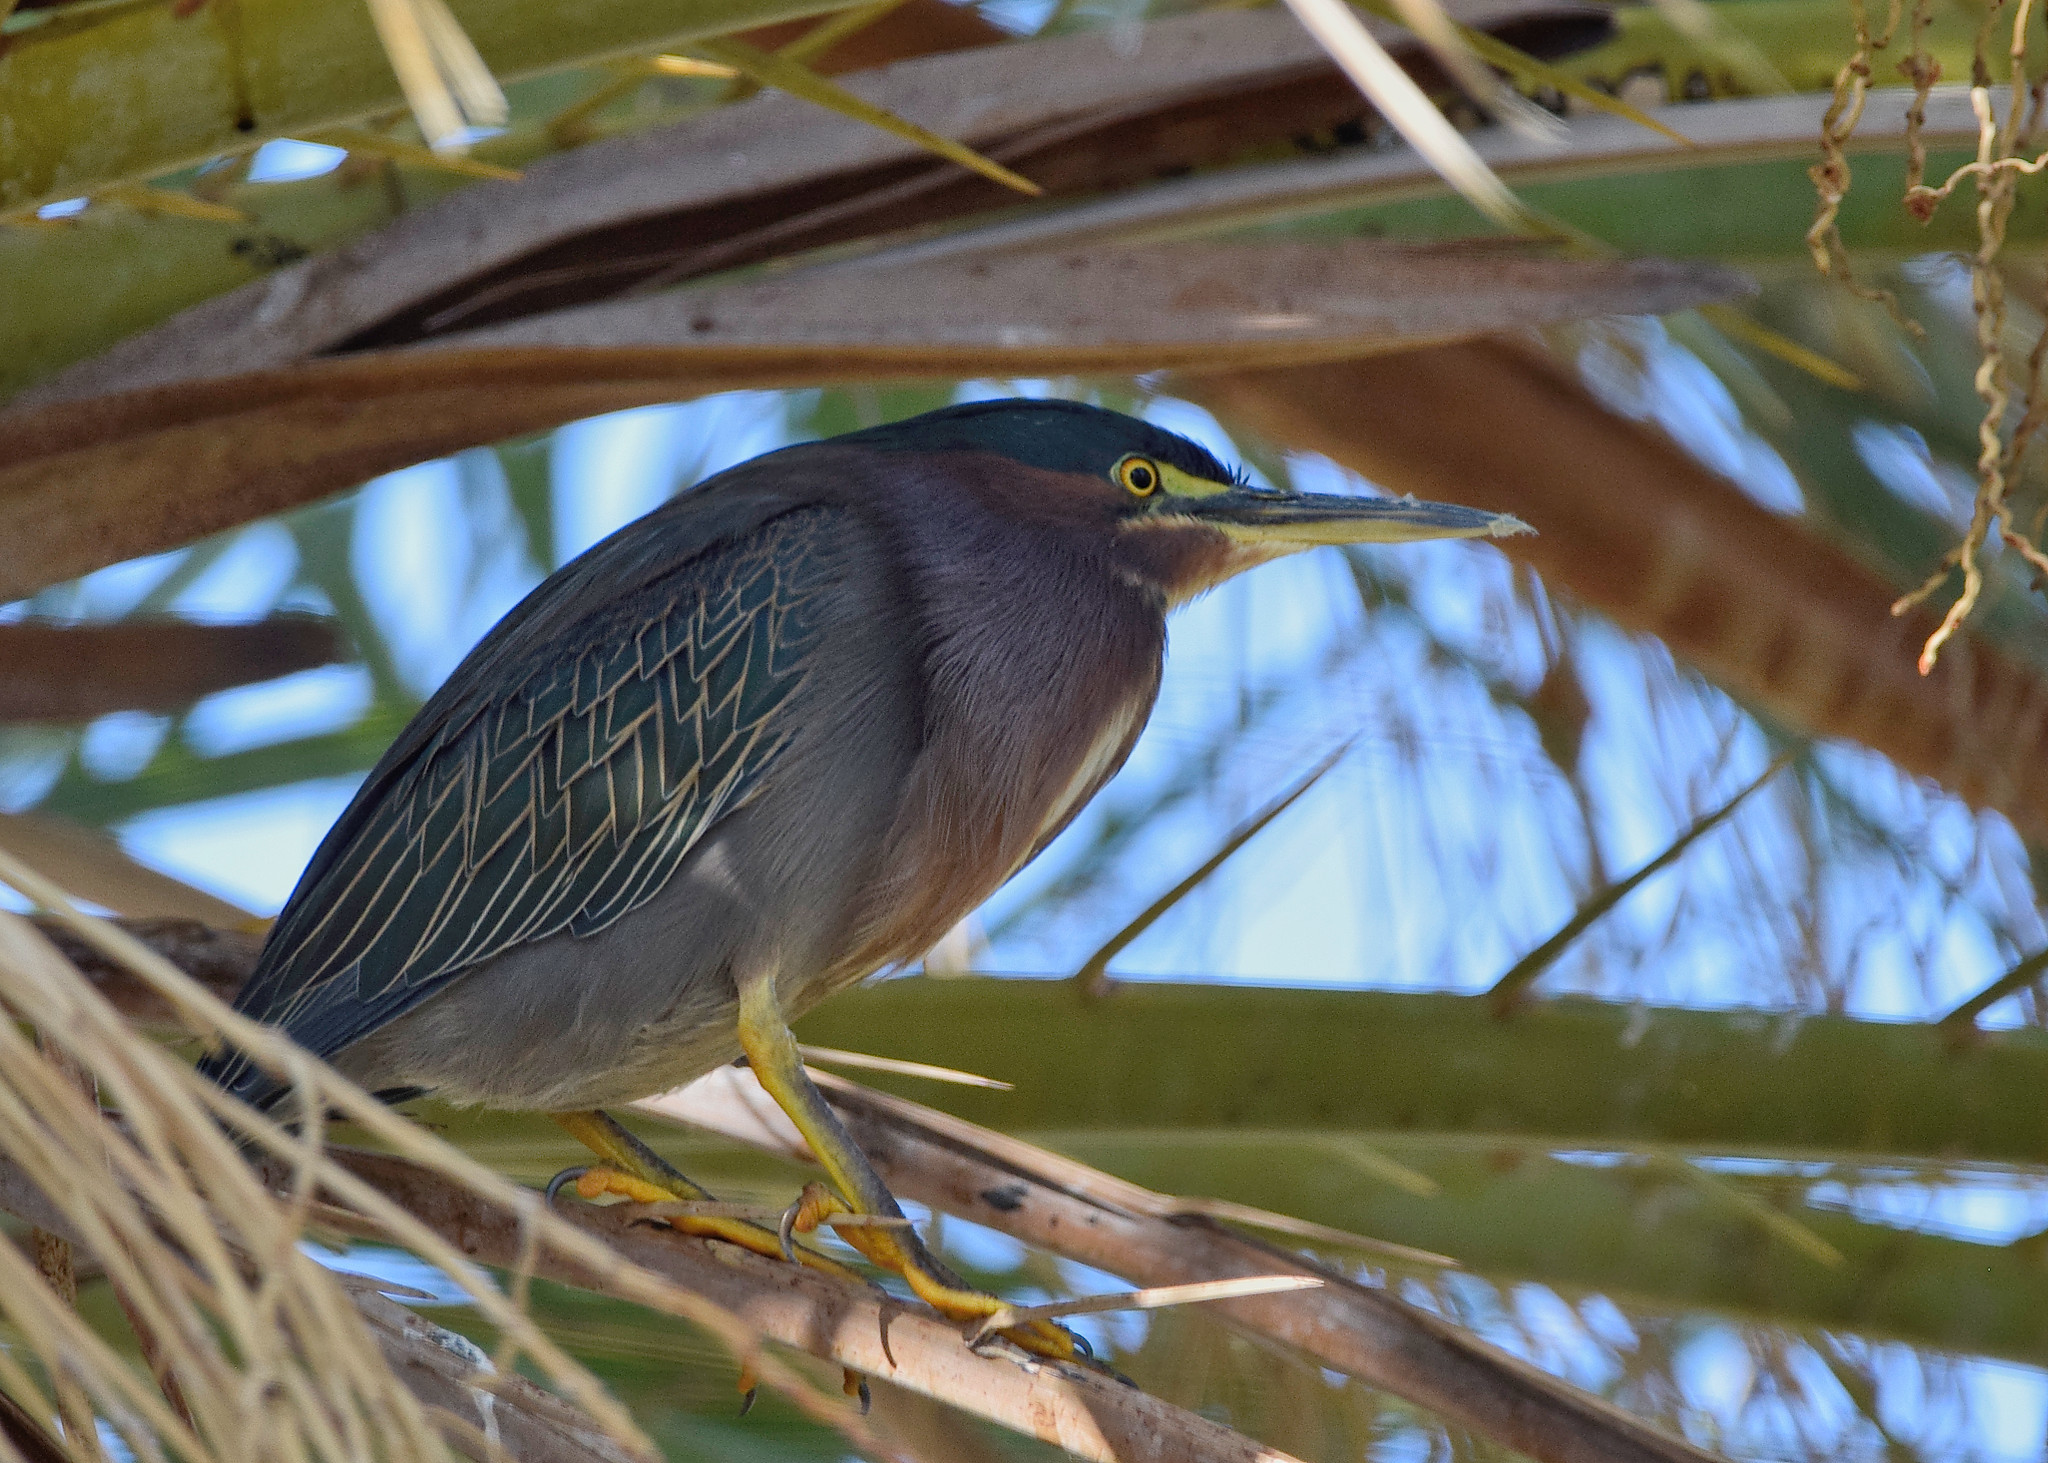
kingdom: Animalia
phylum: Chordata
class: Aves
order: Pelecaniformes
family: Ardeidae
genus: Butorides
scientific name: Butorides virescens
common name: Green heron
